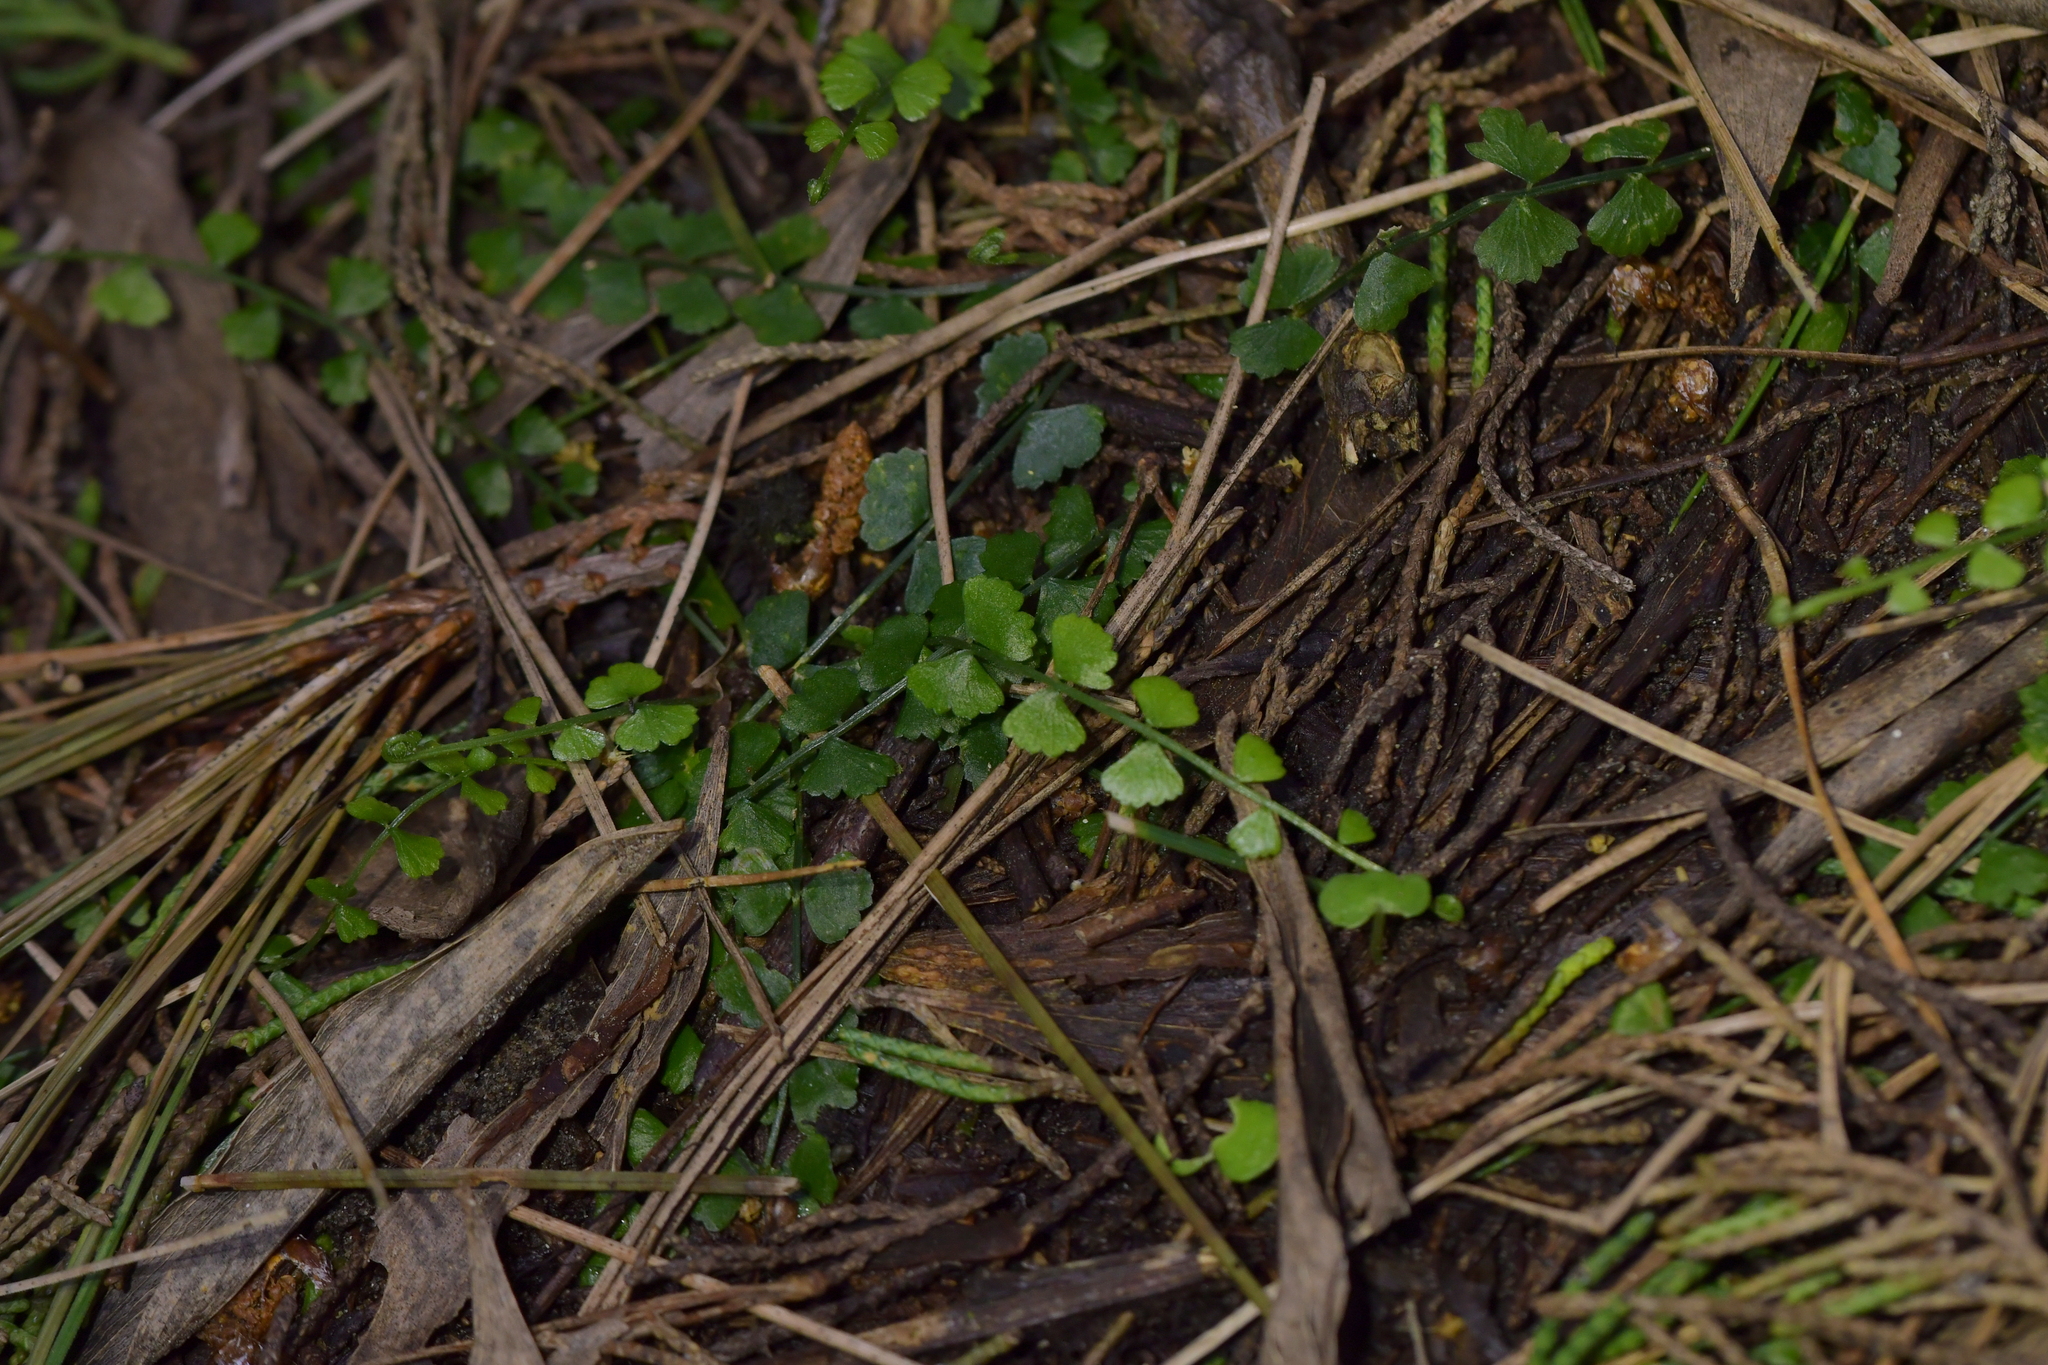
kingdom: Plantae
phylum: Tracheophyta
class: Polypodiopsida
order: Polypodiales
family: Aspleniaceae
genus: Asplenium
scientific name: Asplenium flabellifolium
